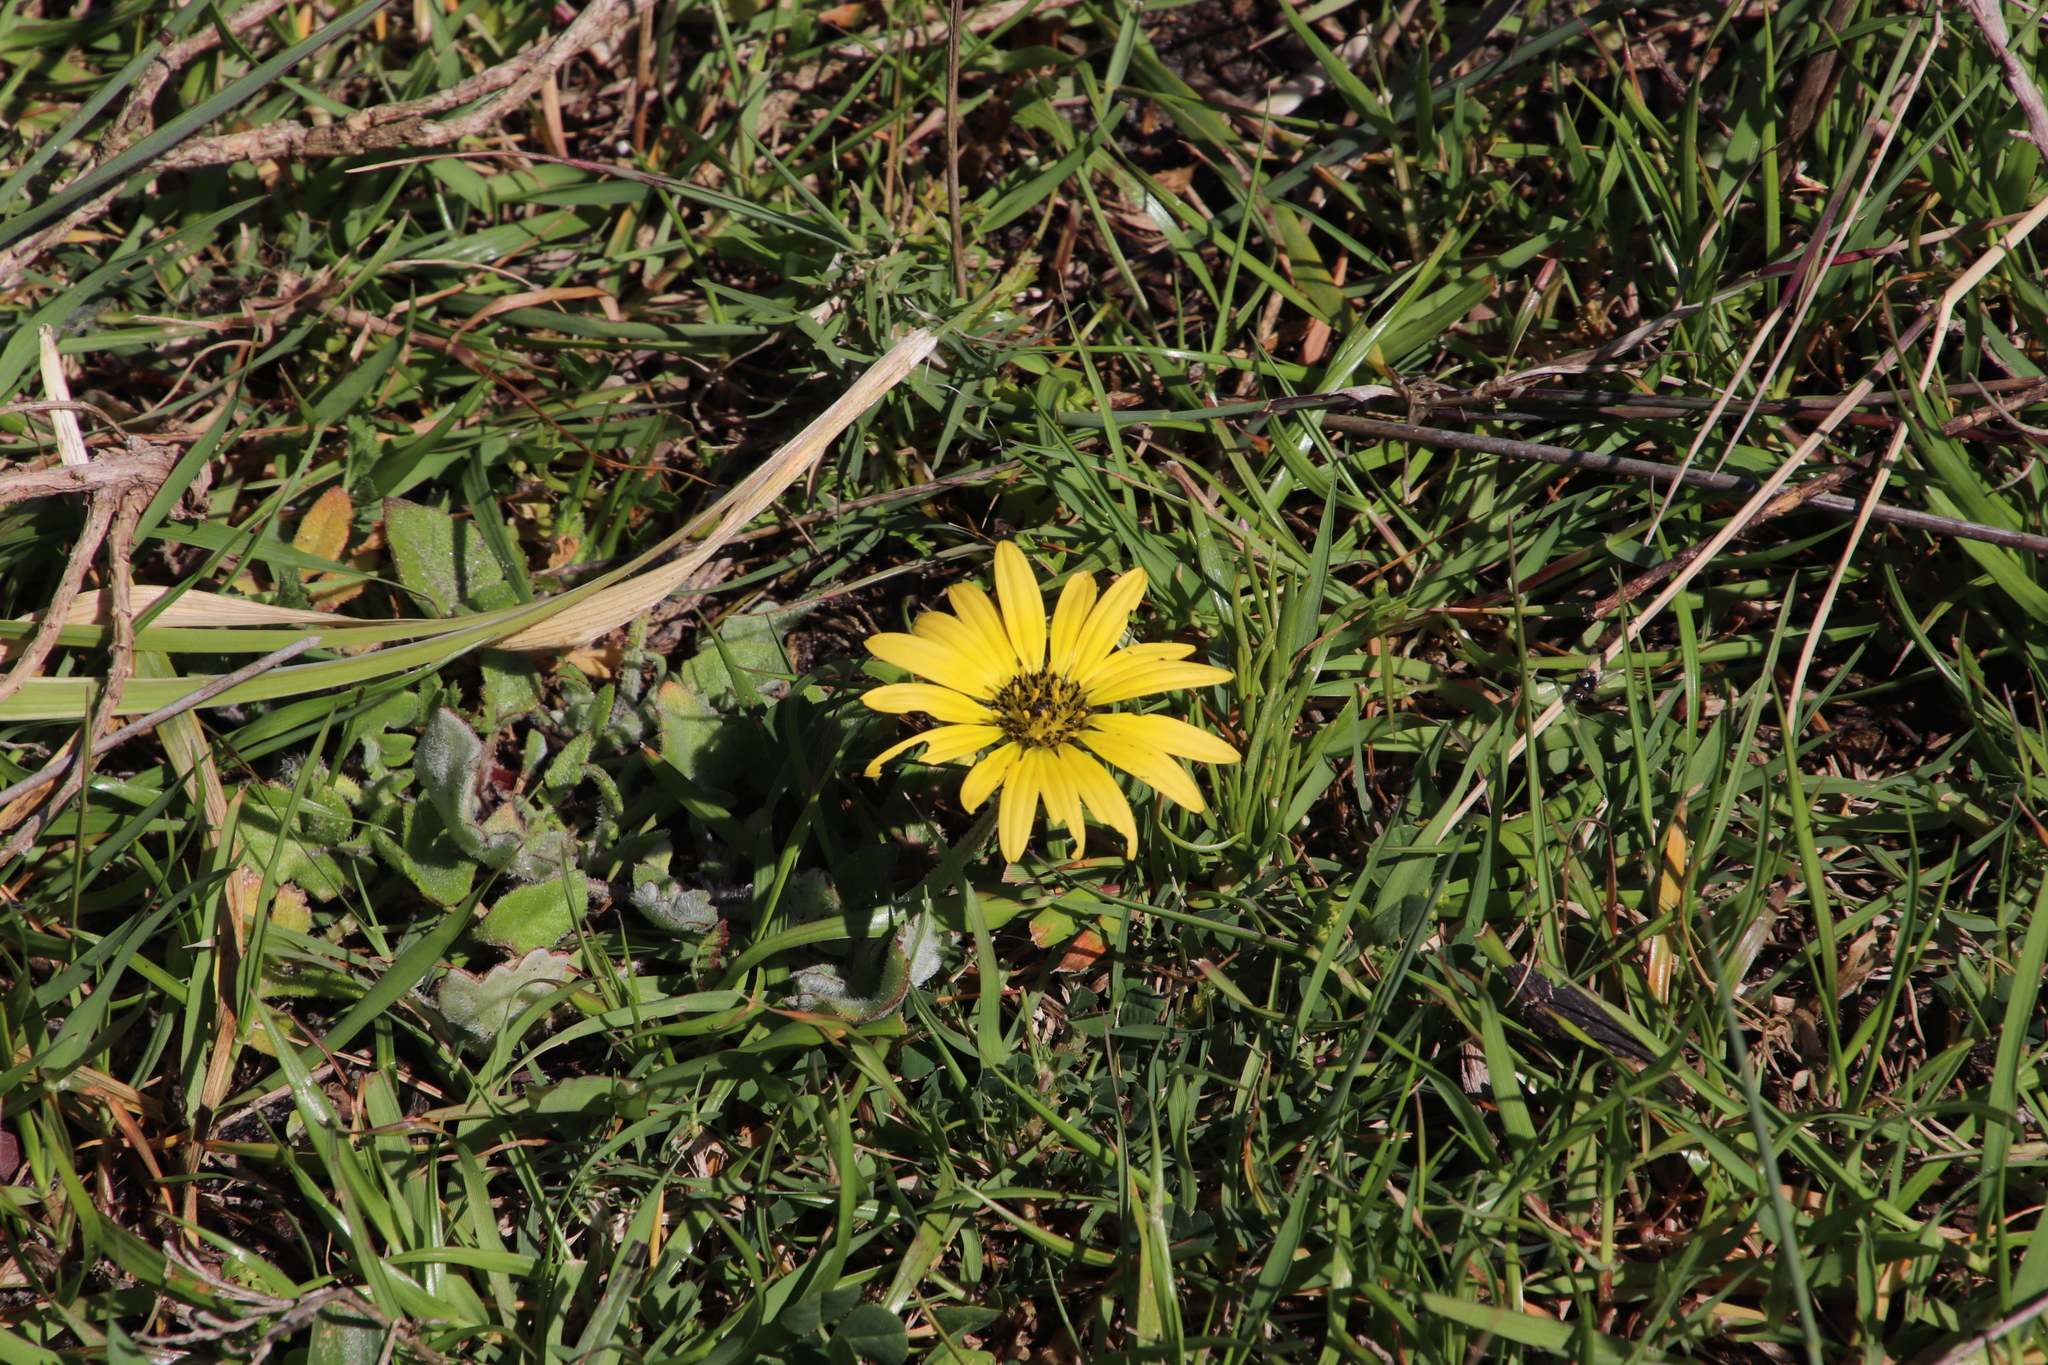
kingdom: Plantae
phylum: Tracheophyta
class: Magnoliopsida
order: Asterales
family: Asteraceae
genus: Arctotheca
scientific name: Arctotheca calendula
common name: Capeweed
